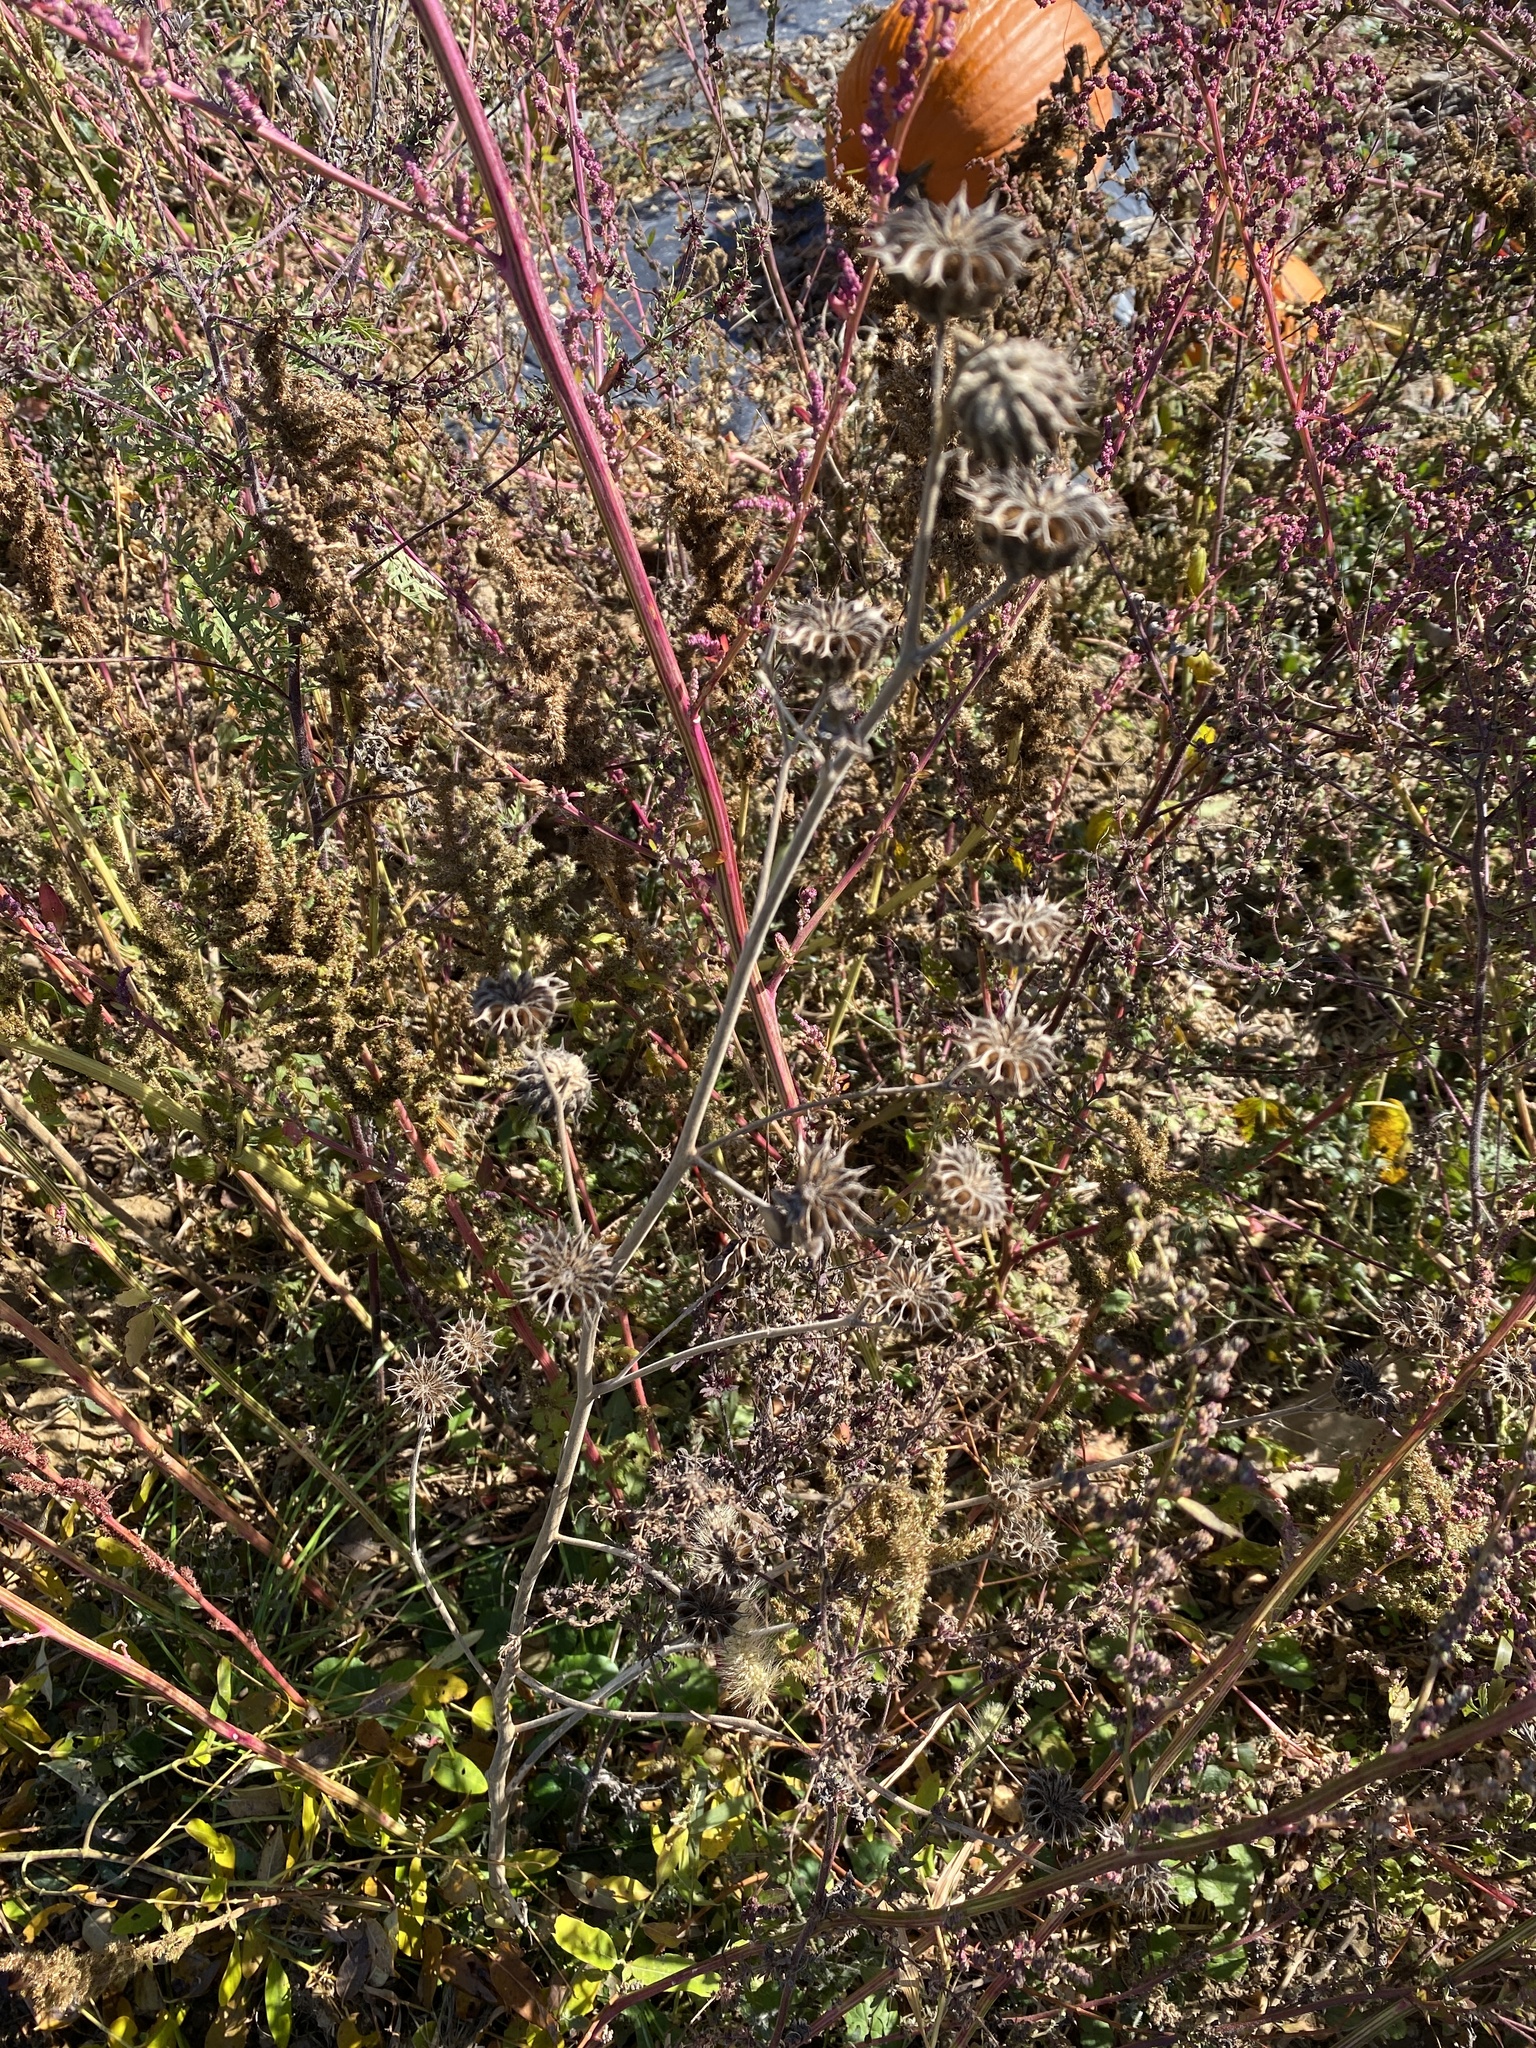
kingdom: Plantae
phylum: Tracheophyta
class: Magnoliopsida
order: Malvales
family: Malvaceae
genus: Abutilon
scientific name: Abutilon theophrasti
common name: Velvetleaf
